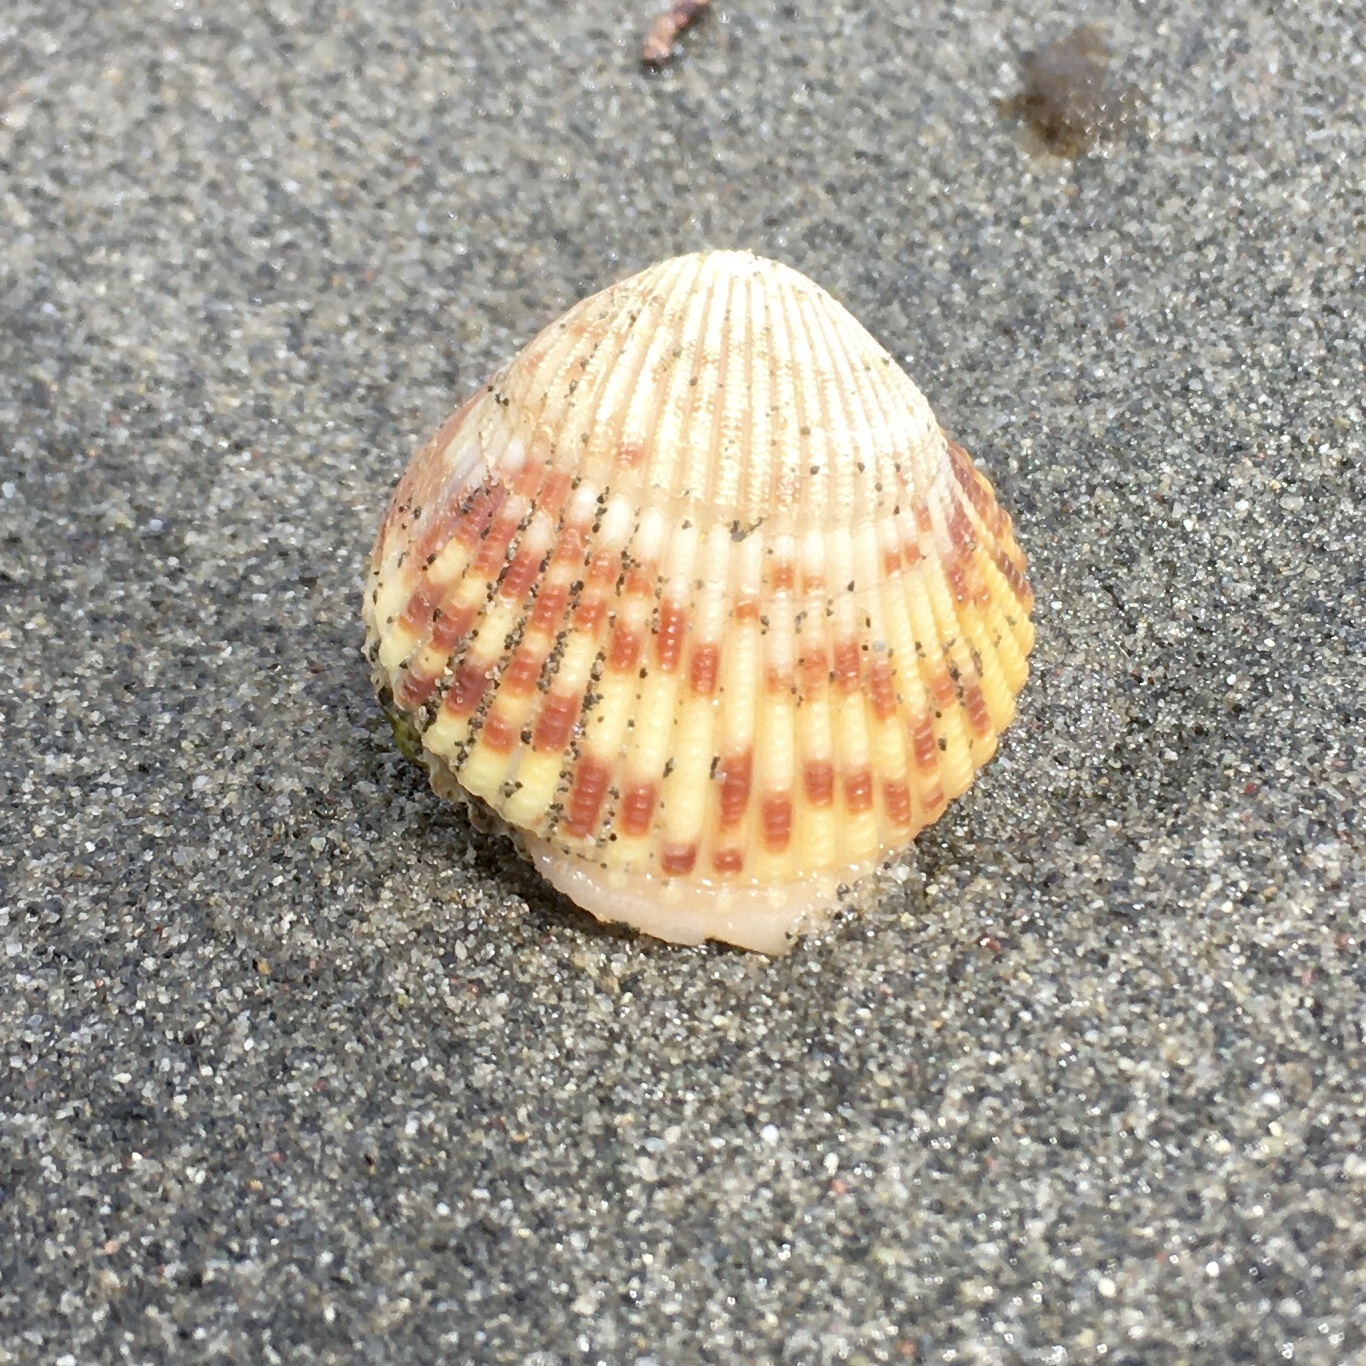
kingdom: Animalia
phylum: Mollusca
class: Bivalvia
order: Cardiida
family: Cardiidae
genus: Clinocardium
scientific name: Clinocardium nuttallii
